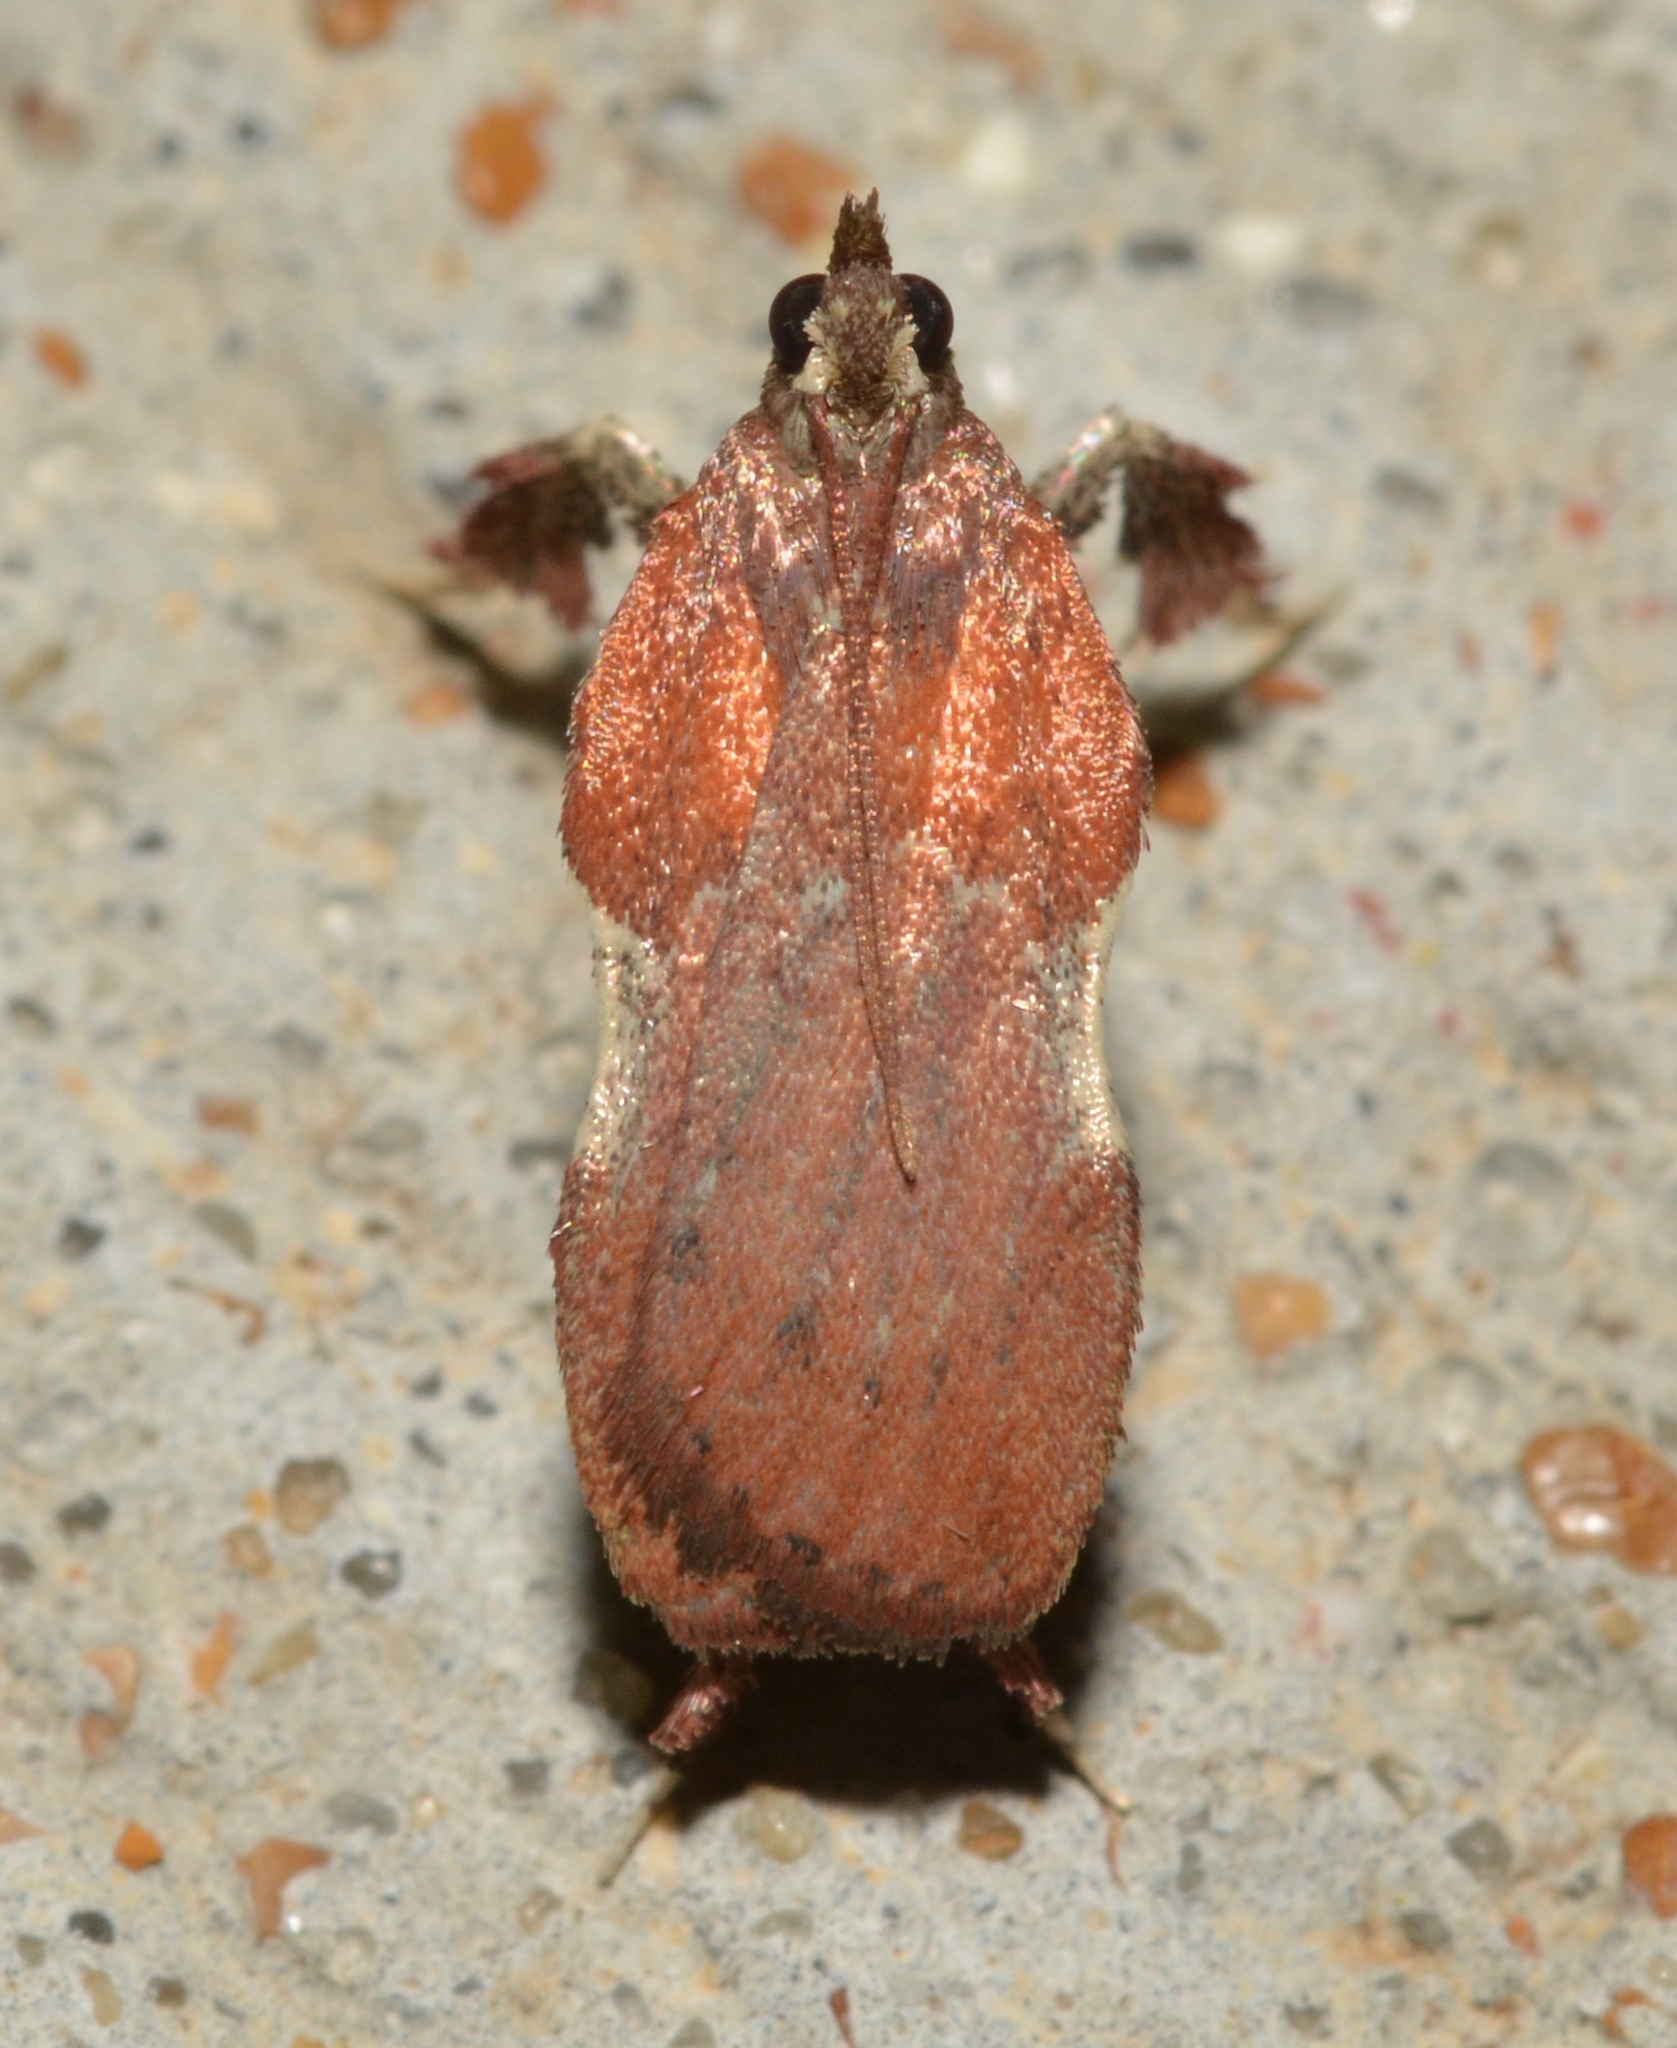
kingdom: Animalia
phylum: Arthropoda
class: Insecta
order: Lepidoptera
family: Pyralidae
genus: Galasa
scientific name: Galasa nigrinodis
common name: Boxwood leaftier moth
